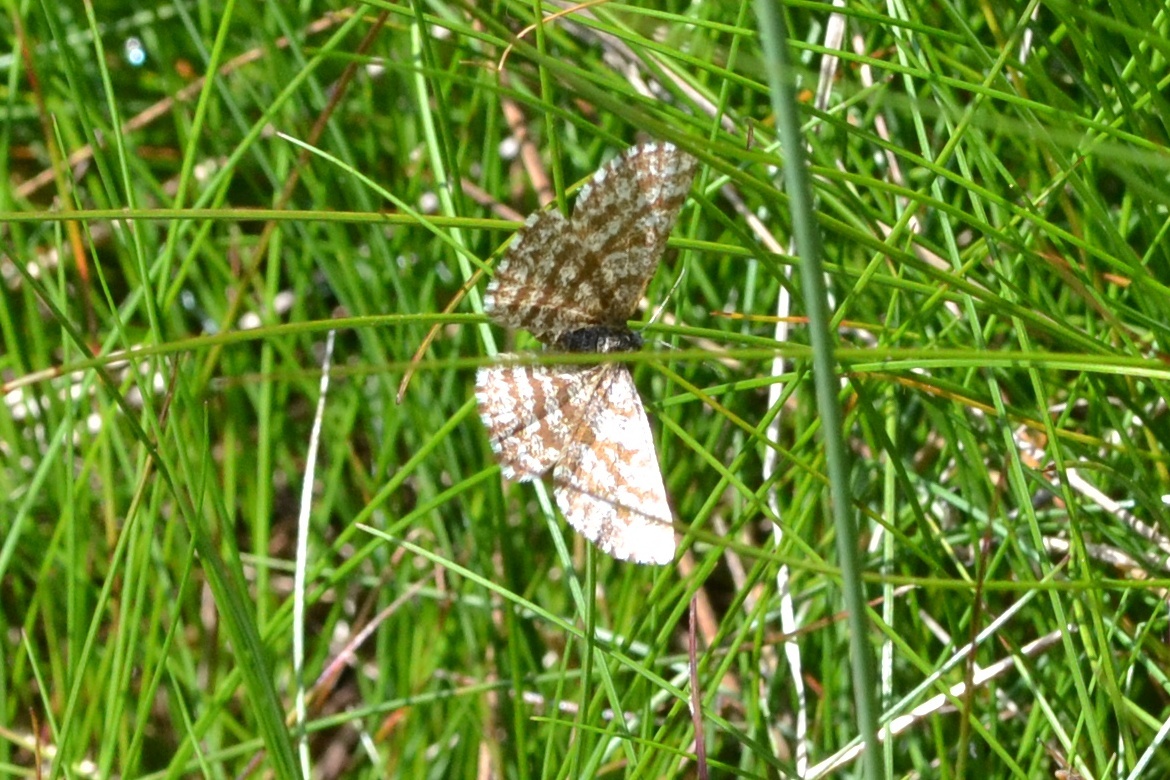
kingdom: Animalia
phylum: Arthropoda
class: Insecta
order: Lepidoptera
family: Geometridae
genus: Ematurga
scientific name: Ematurga atomaria
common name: Common heath
